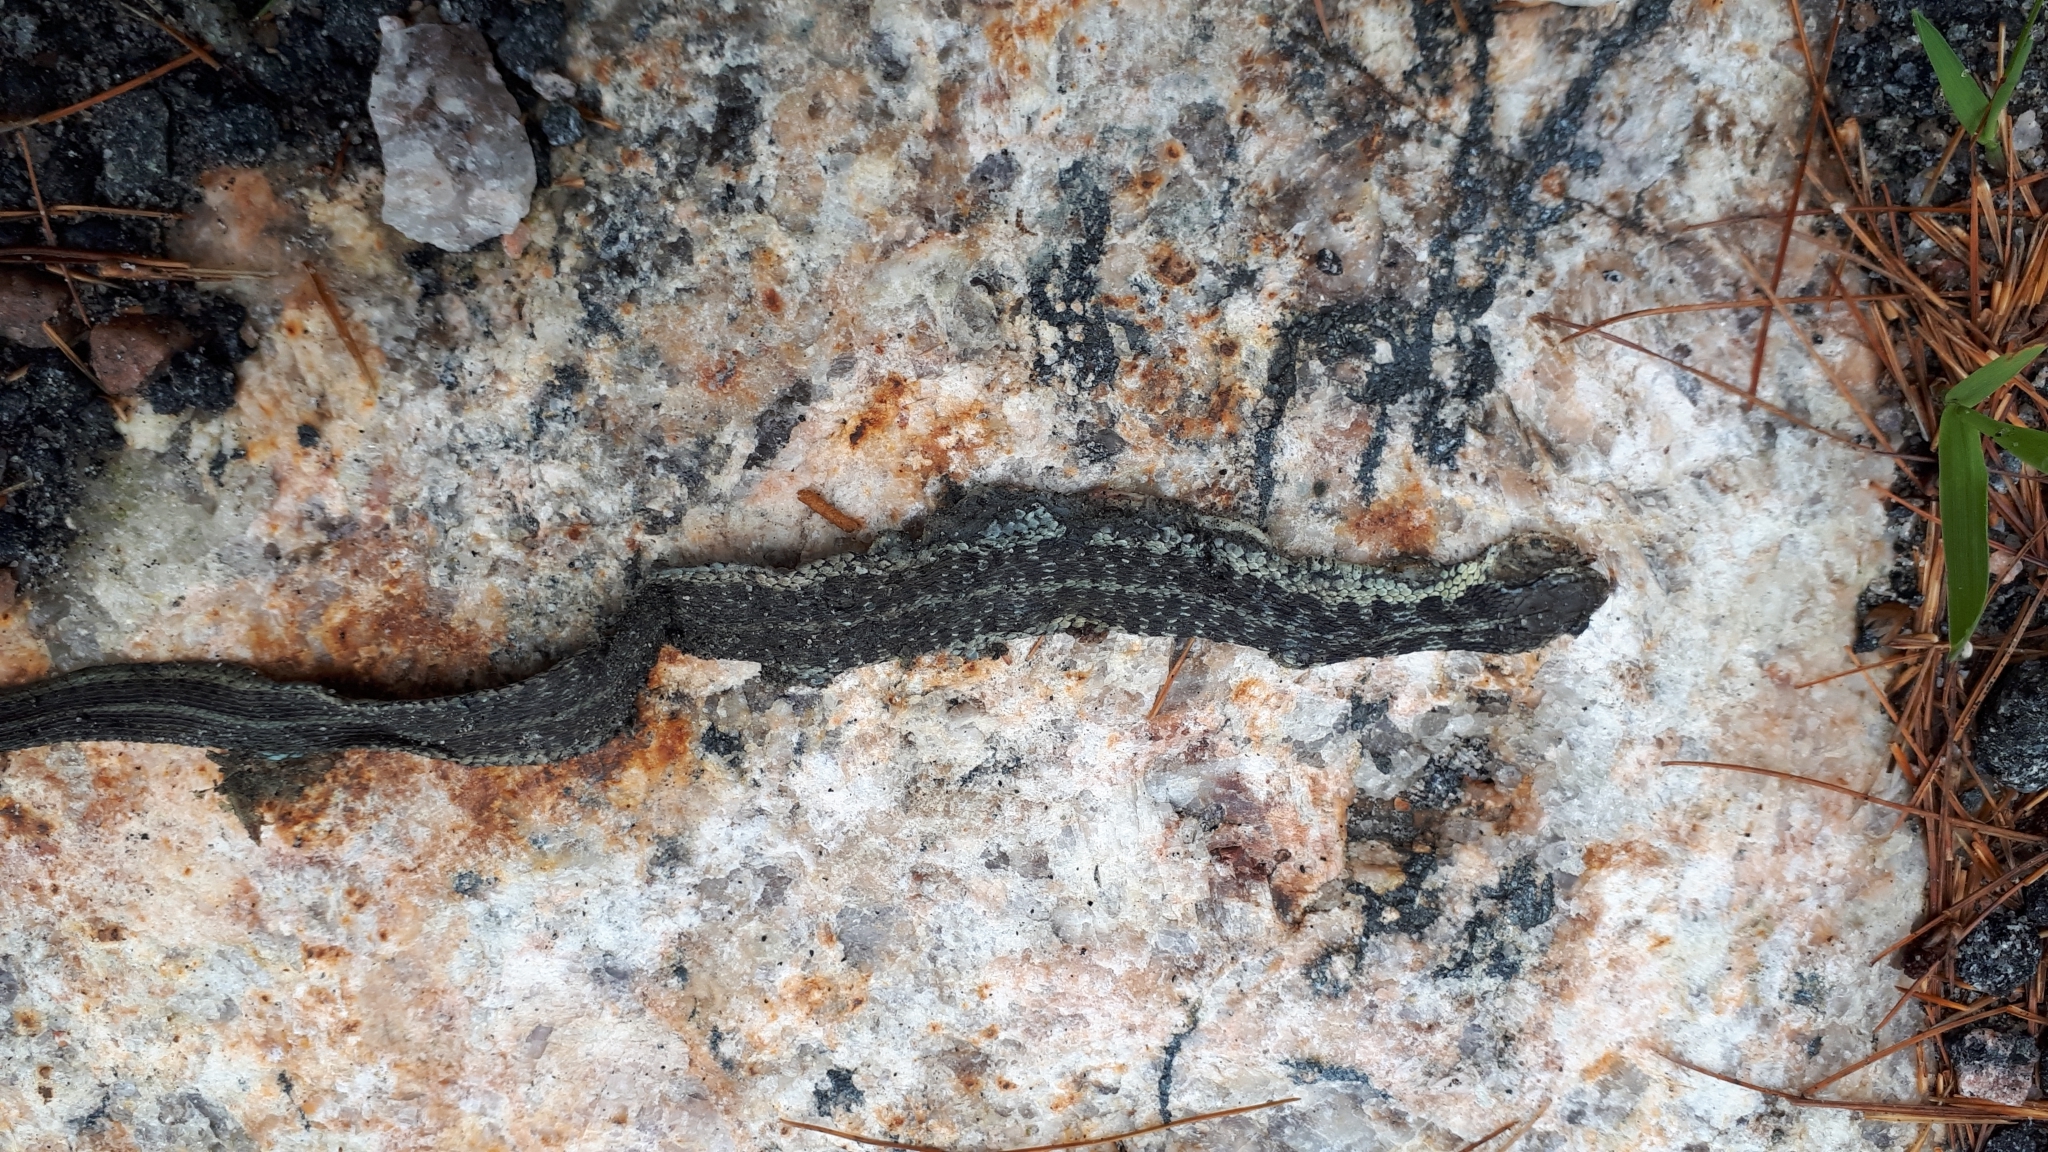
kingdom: Animalia
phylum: Chordata
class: Squamata
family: Colubridae
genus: Thamnophis
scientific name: Thamnophis sirtalis
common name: Common garter snake
